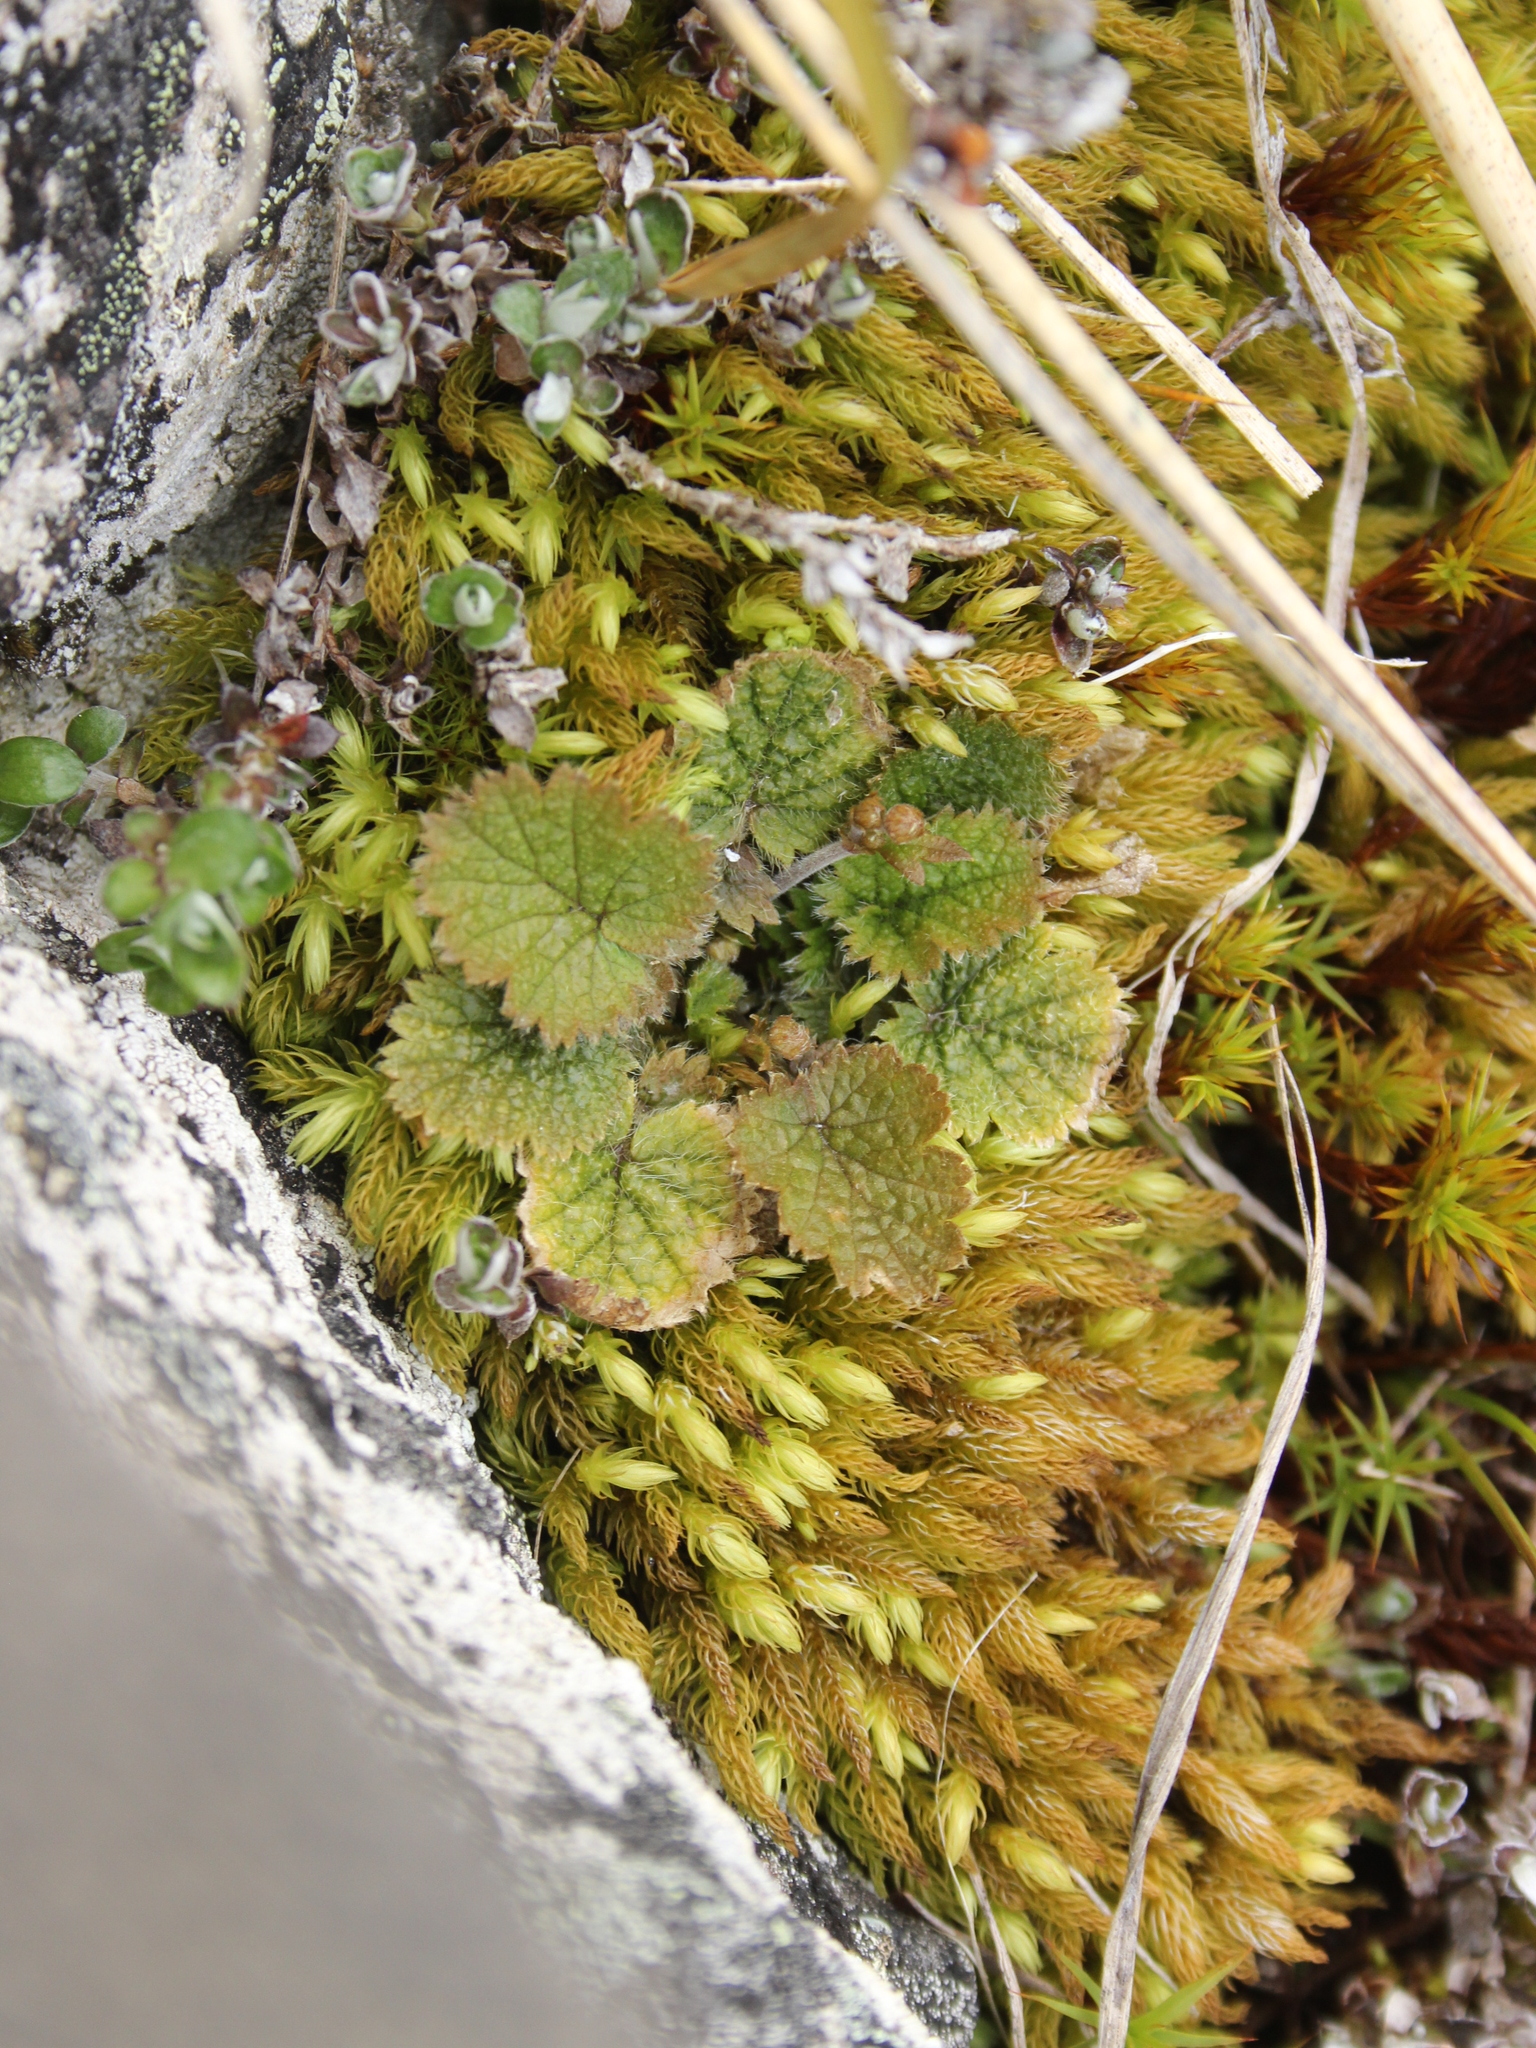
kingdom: Plantae
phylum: Tracheophyta
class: Magnoliopsida
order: Rosales
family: Rosaceae
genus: Geum
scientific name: Geum leiospermum
